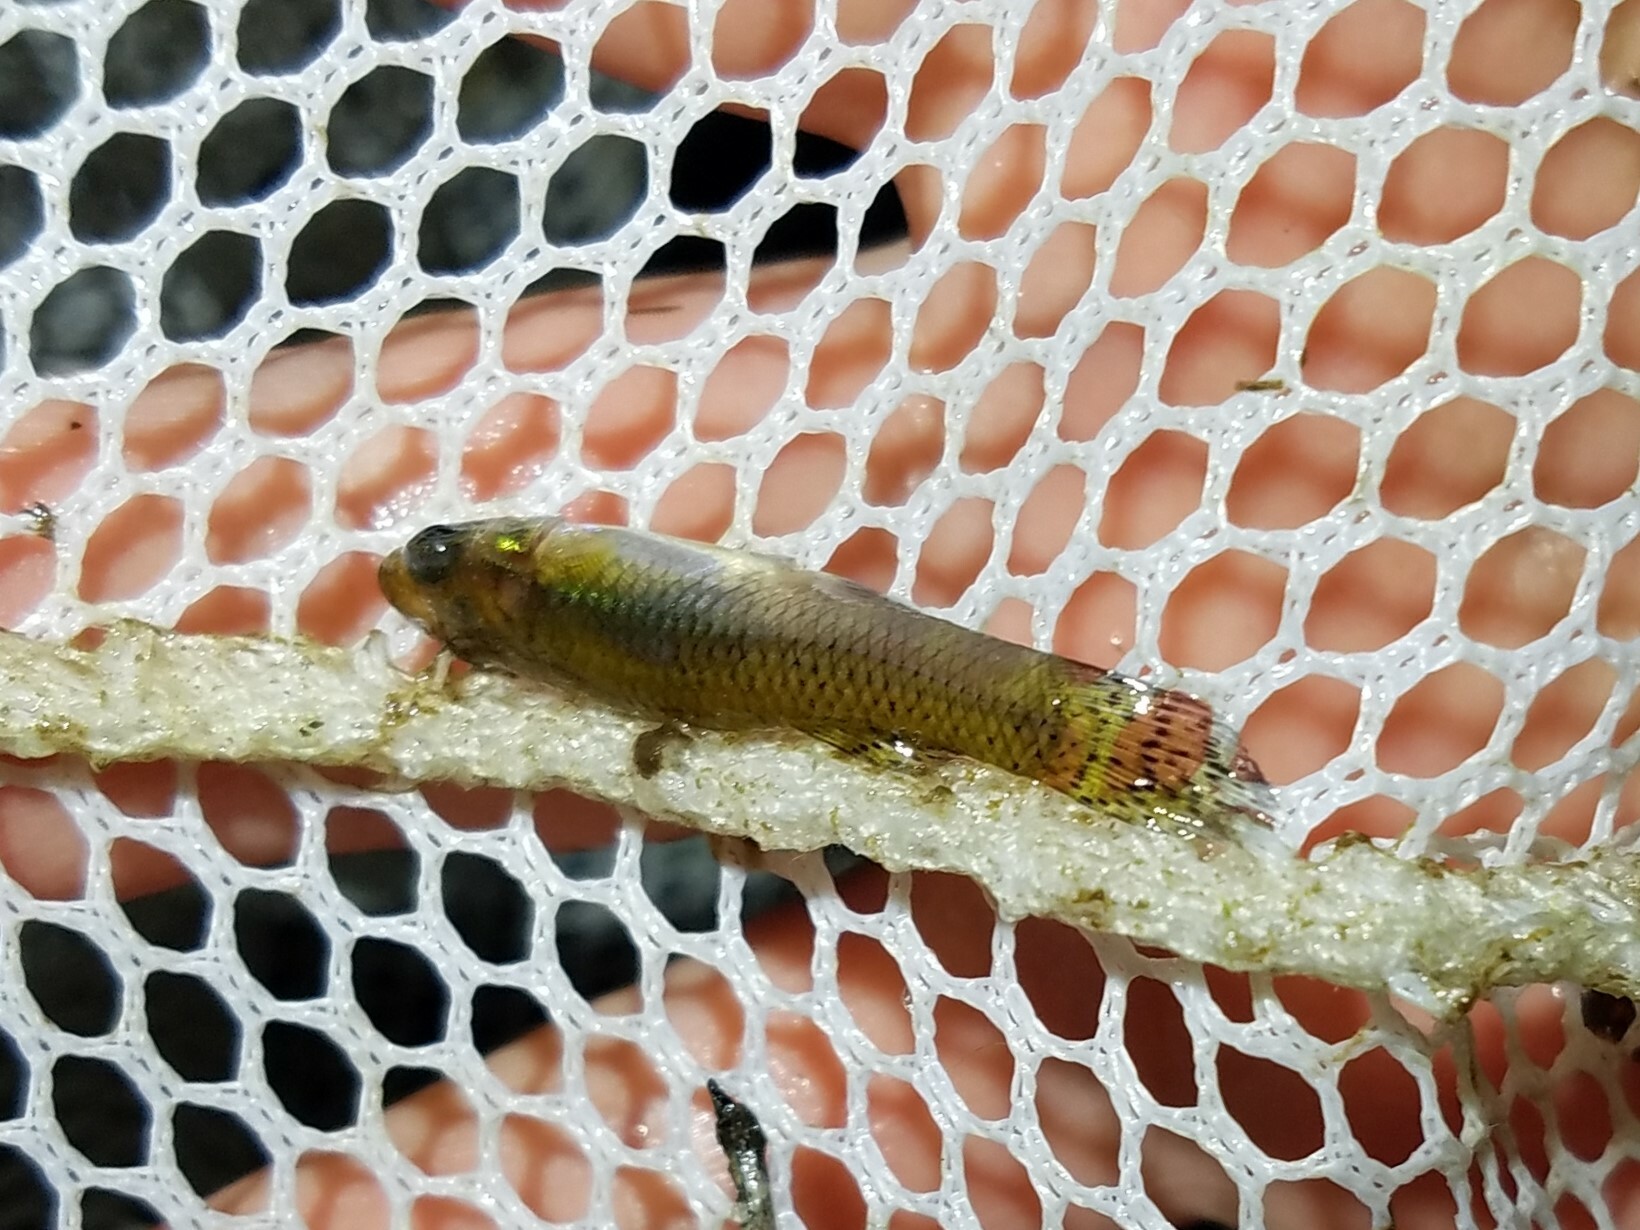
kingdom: Animalia
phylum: Chordata
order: Cyprinodontiformes
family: Poeciliidae
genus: Gambusia
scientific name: Gambusia holbrooki
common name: Eastern mosquitofish
